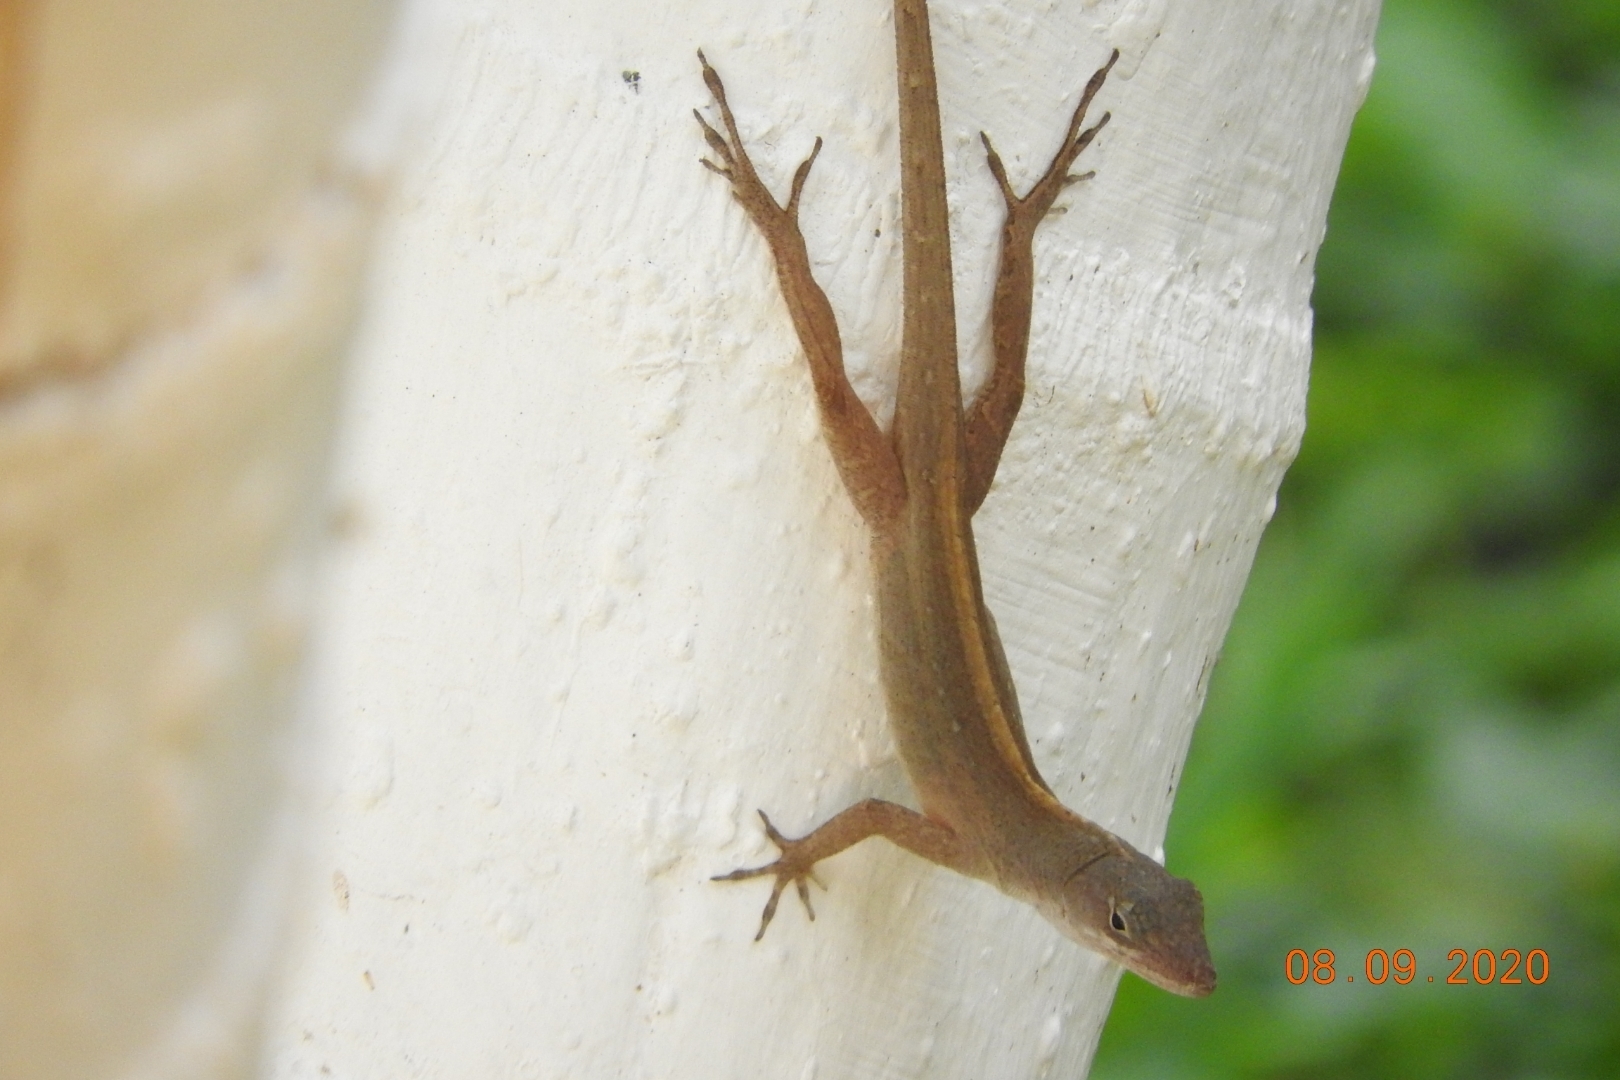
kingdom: Animalia
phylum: Chordata
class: Squamata
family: Dactyloidae
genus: Anolis
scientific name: Anolis sagrei
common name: Brown anole
